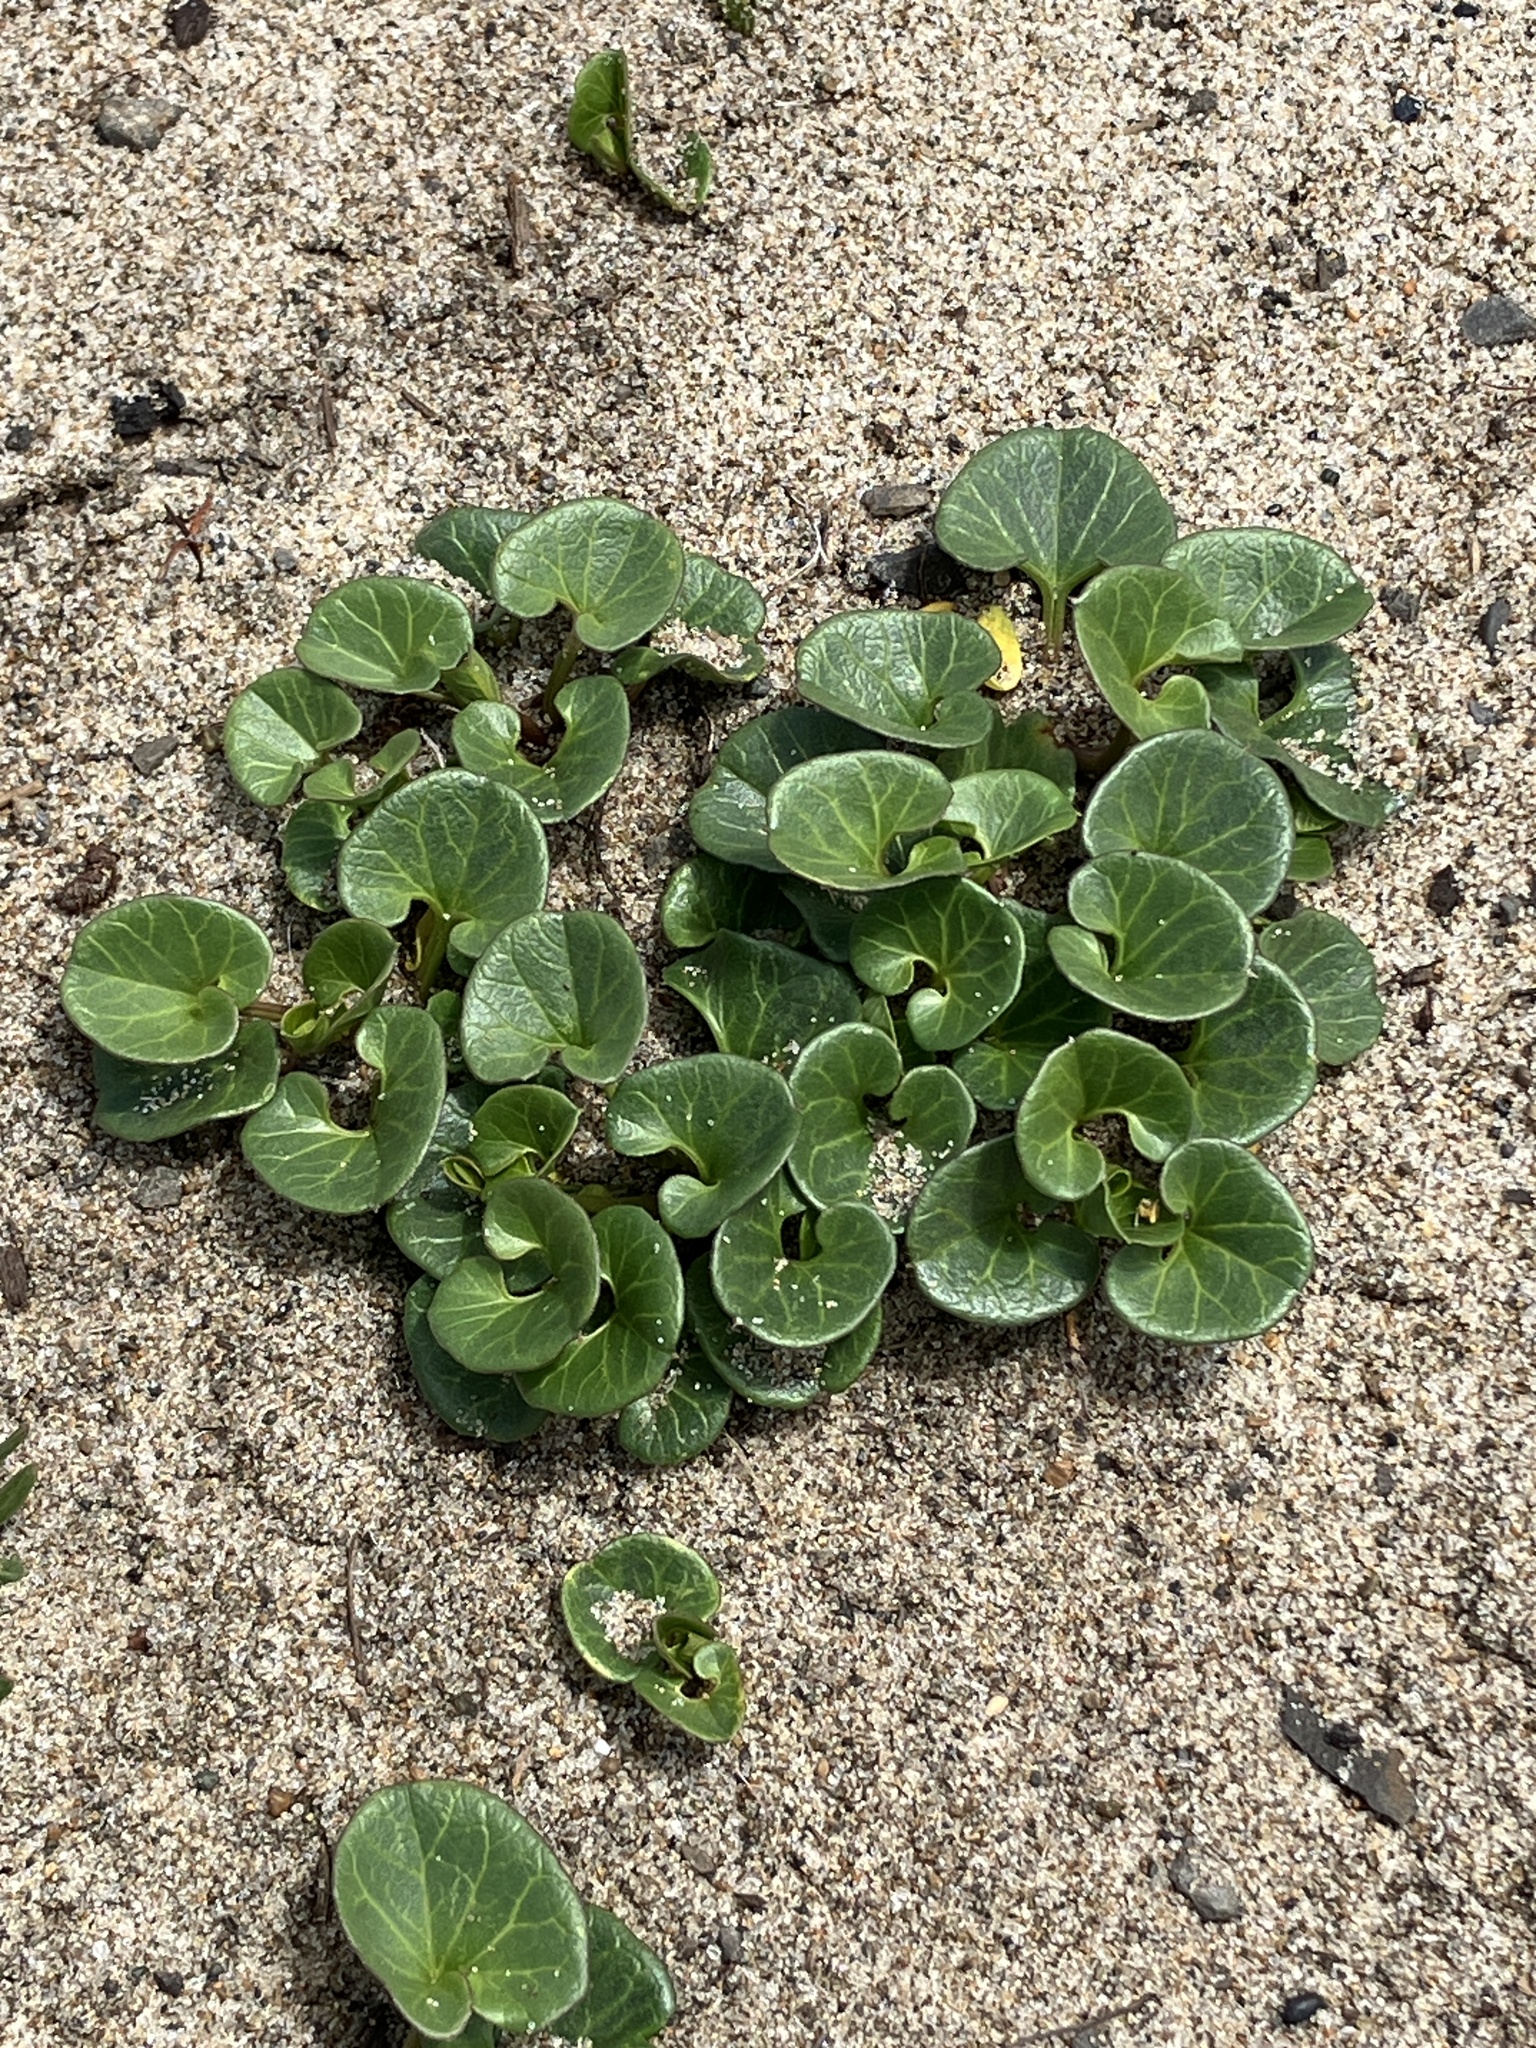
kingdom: Plantae
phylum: Tracheophyta
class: Magnoliopsida
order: Solanales
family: Convolvulaceae
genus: Calystegia
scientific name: Calystegia soldanella
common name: Sea bindweed
